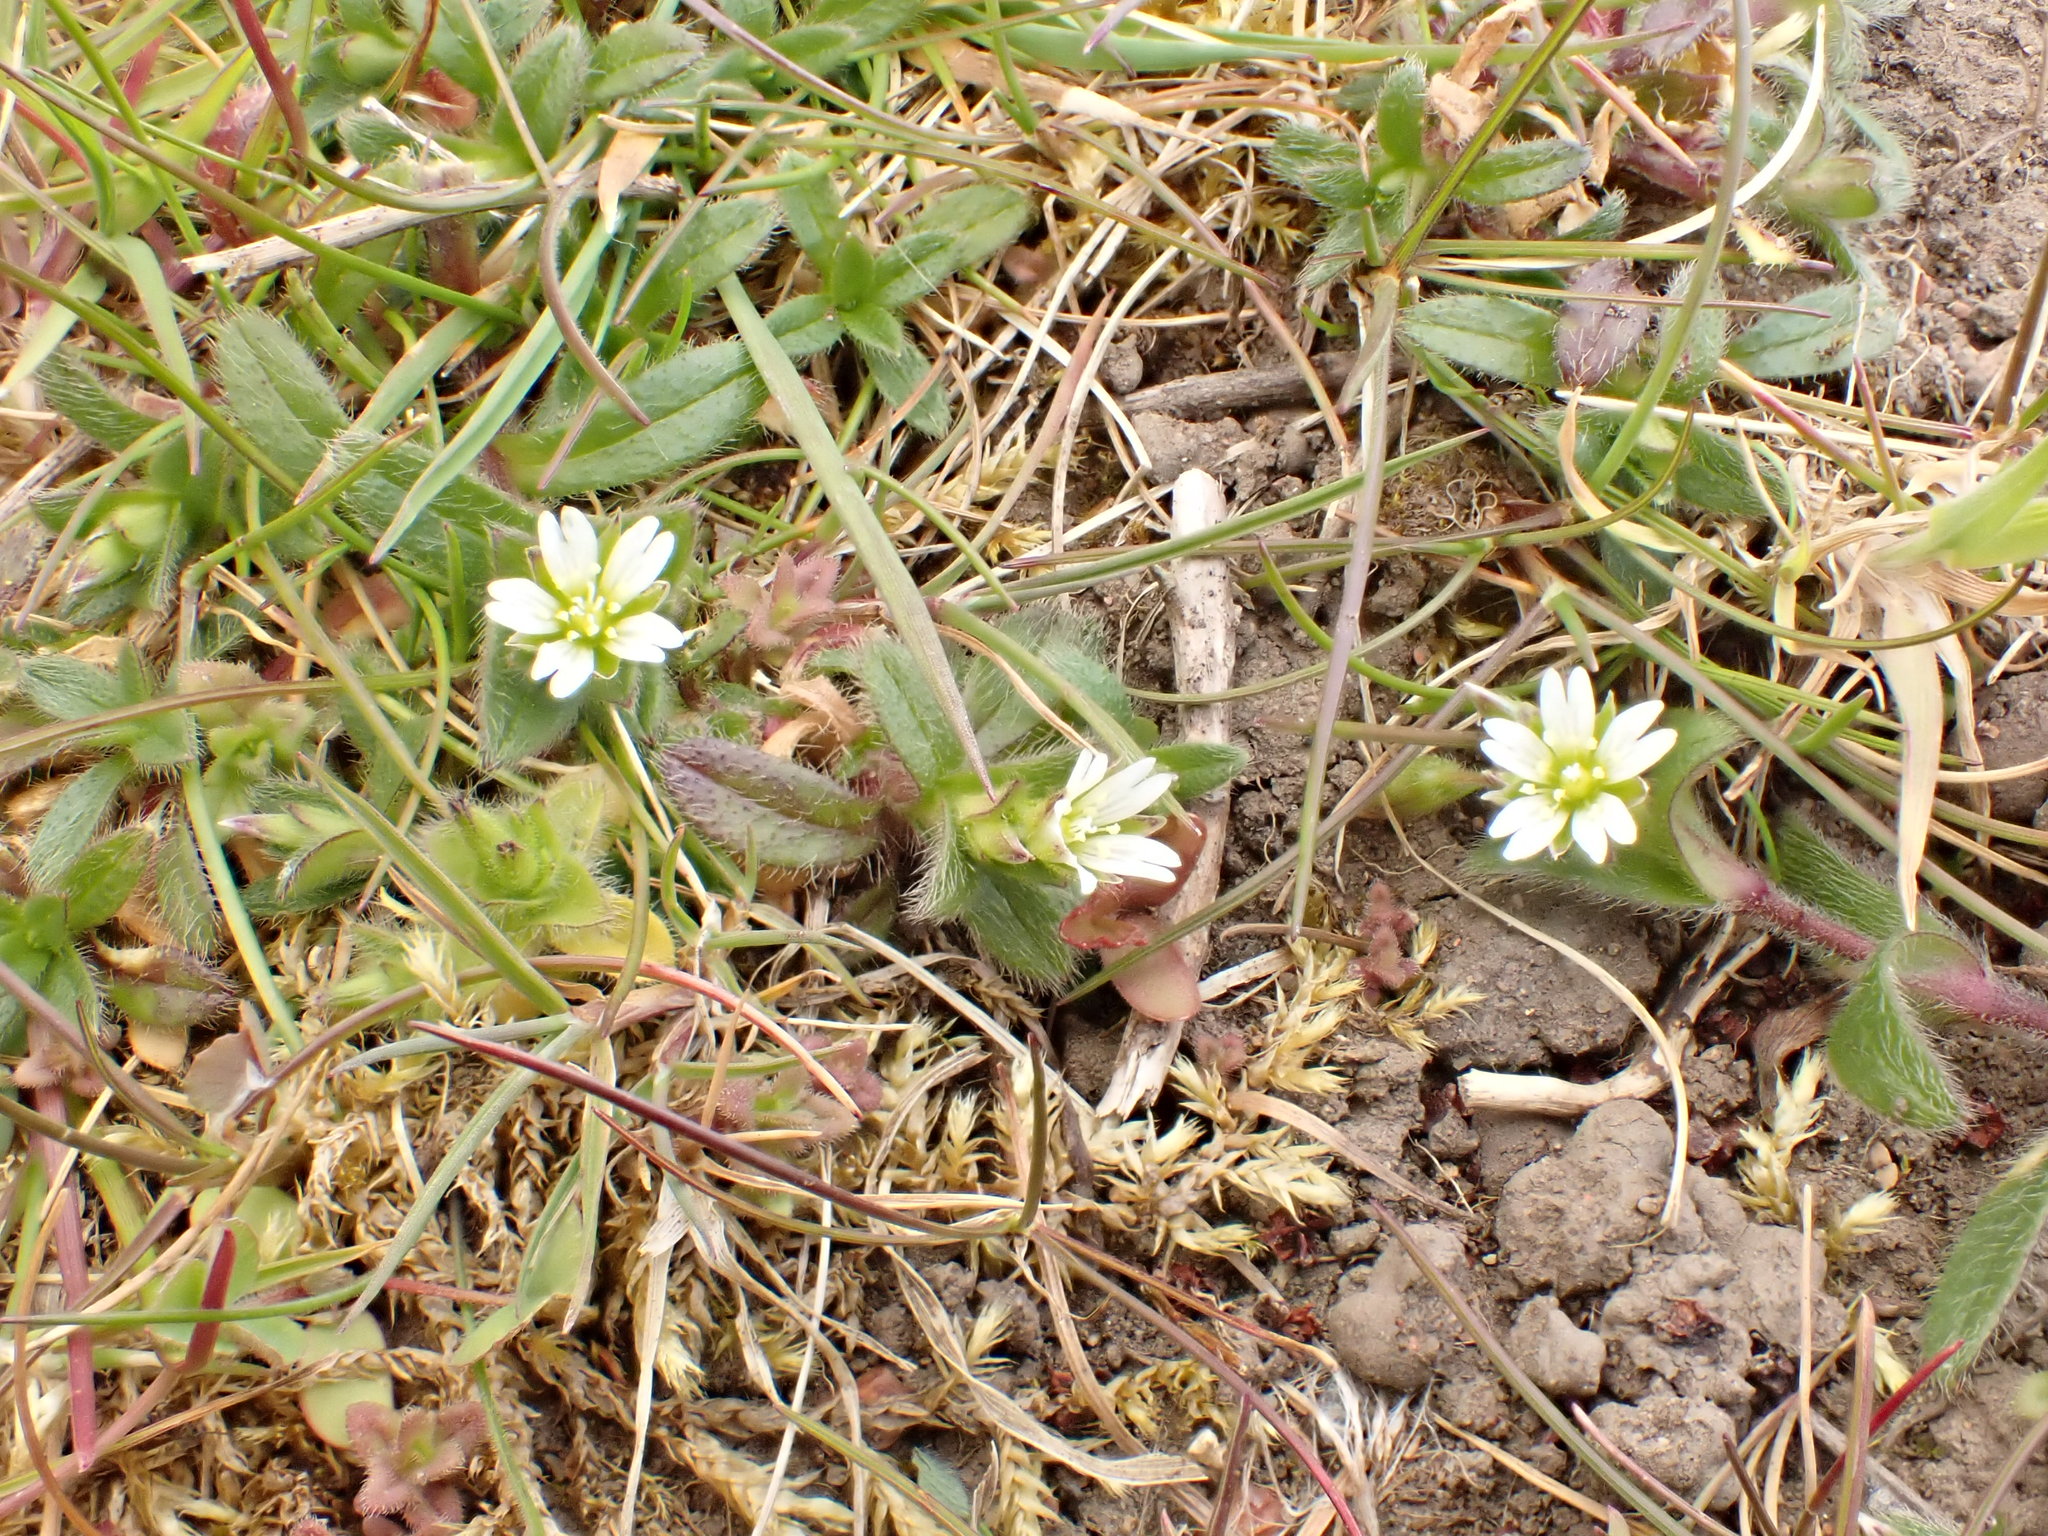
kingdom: Plantae
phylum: Tracheophyta
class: Magnoliopsida
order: Caryophyllales
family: Caryophyllaceae
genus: Cerastium
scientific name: Cerastium fontanum
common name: Common mouse-ear
